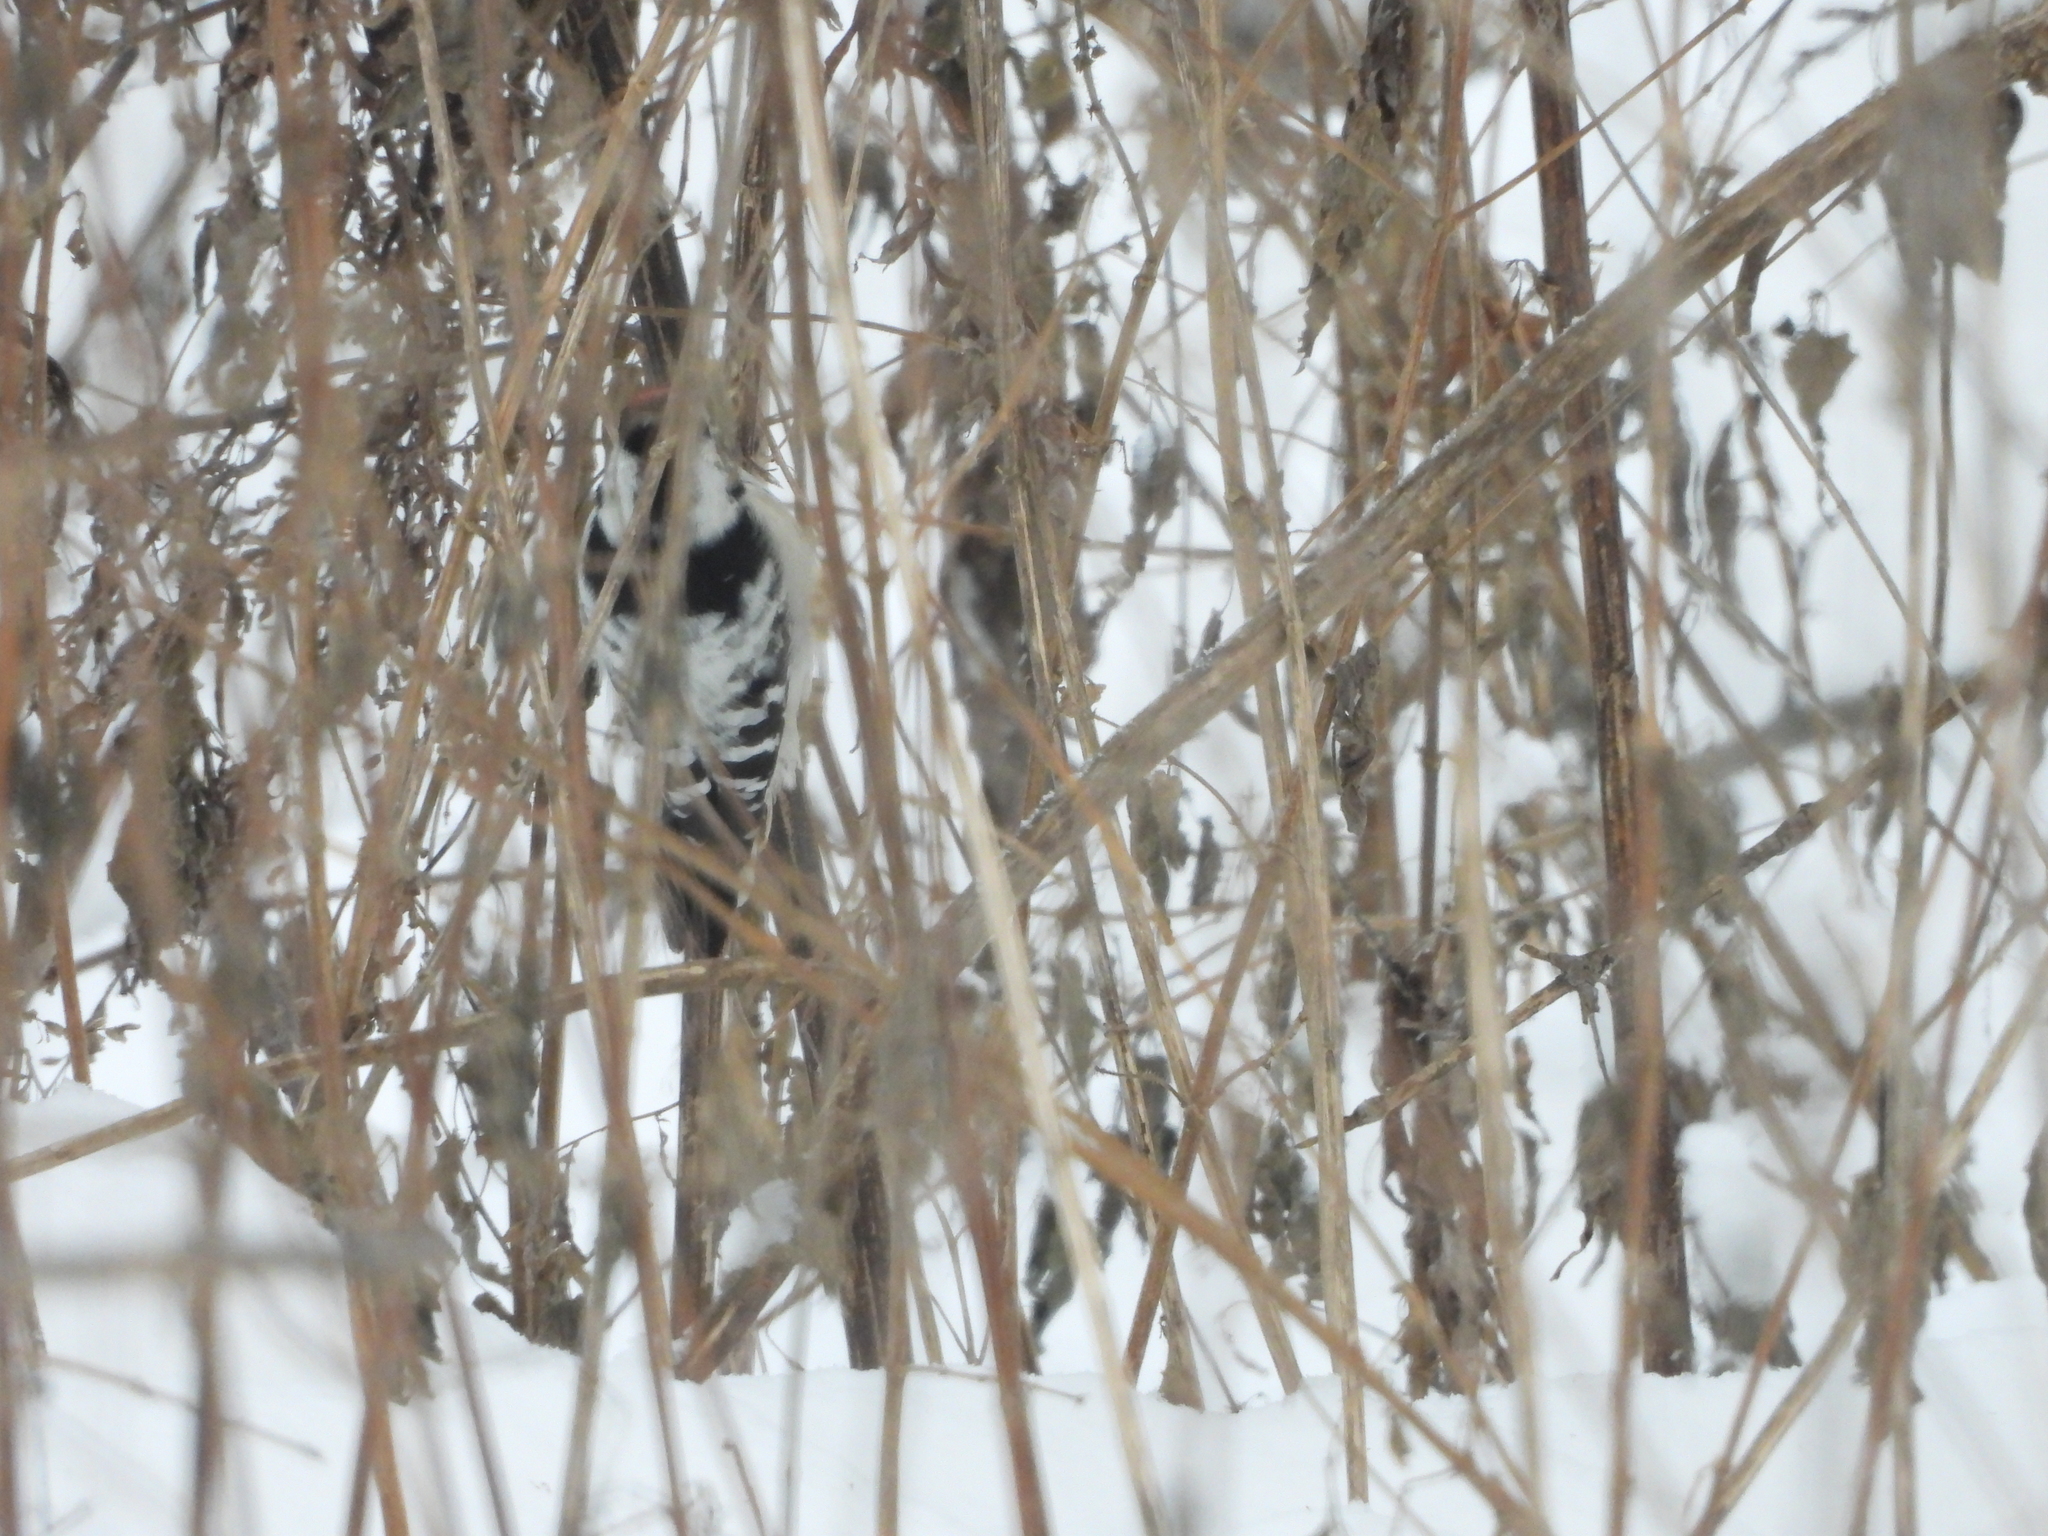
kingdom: Animalia
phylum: Chordata
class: Aves
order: Piciformes
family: Picidae
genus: Dryobates
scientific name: Dryobates minor
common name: Lesser spotted woodpecker
